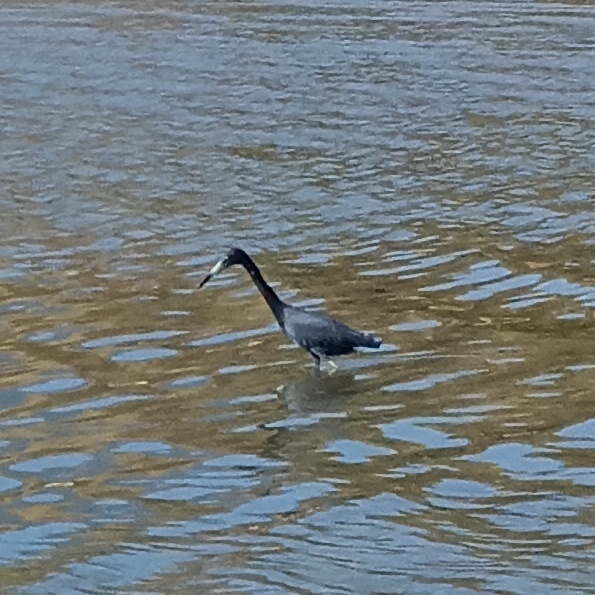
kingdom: Animalia
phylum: Chordata
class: Aves
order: Pelecaniformes
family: Ardeidae
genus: Egretta
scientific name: Egretta caerulea
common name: Little blue heron
